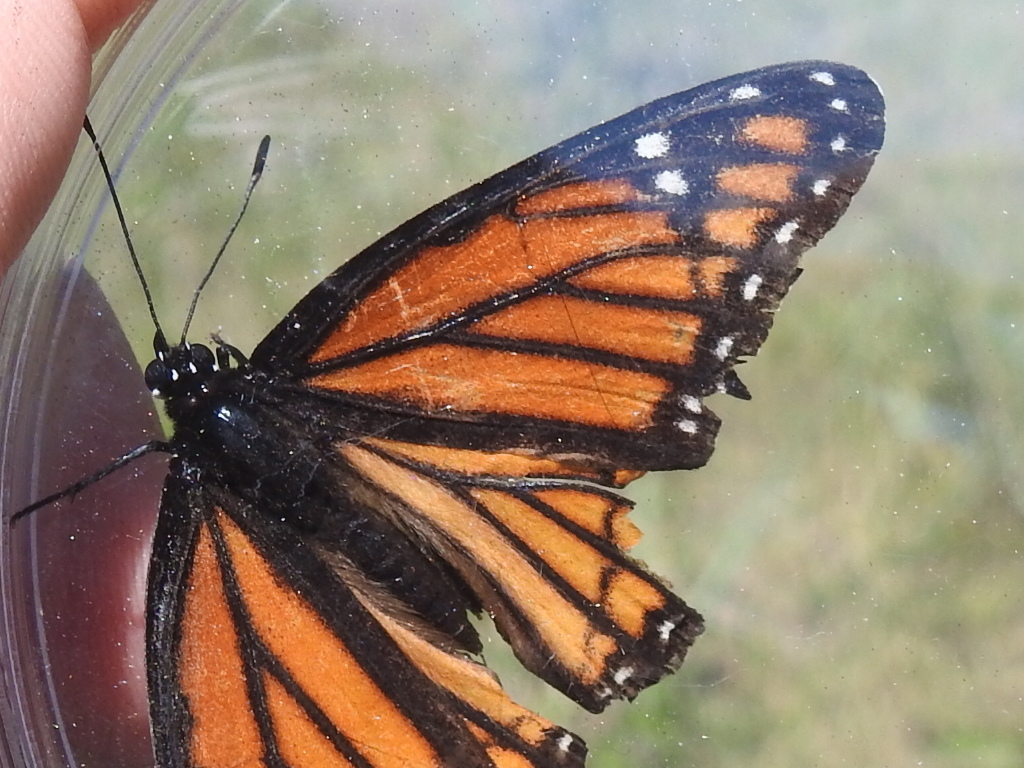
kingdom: Animalia
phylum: Arthropoda
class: Insecta
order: Lepidoptera
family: Nymphalidae
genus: Limenitis
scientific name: Limenitis archippus
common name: Viceroy
